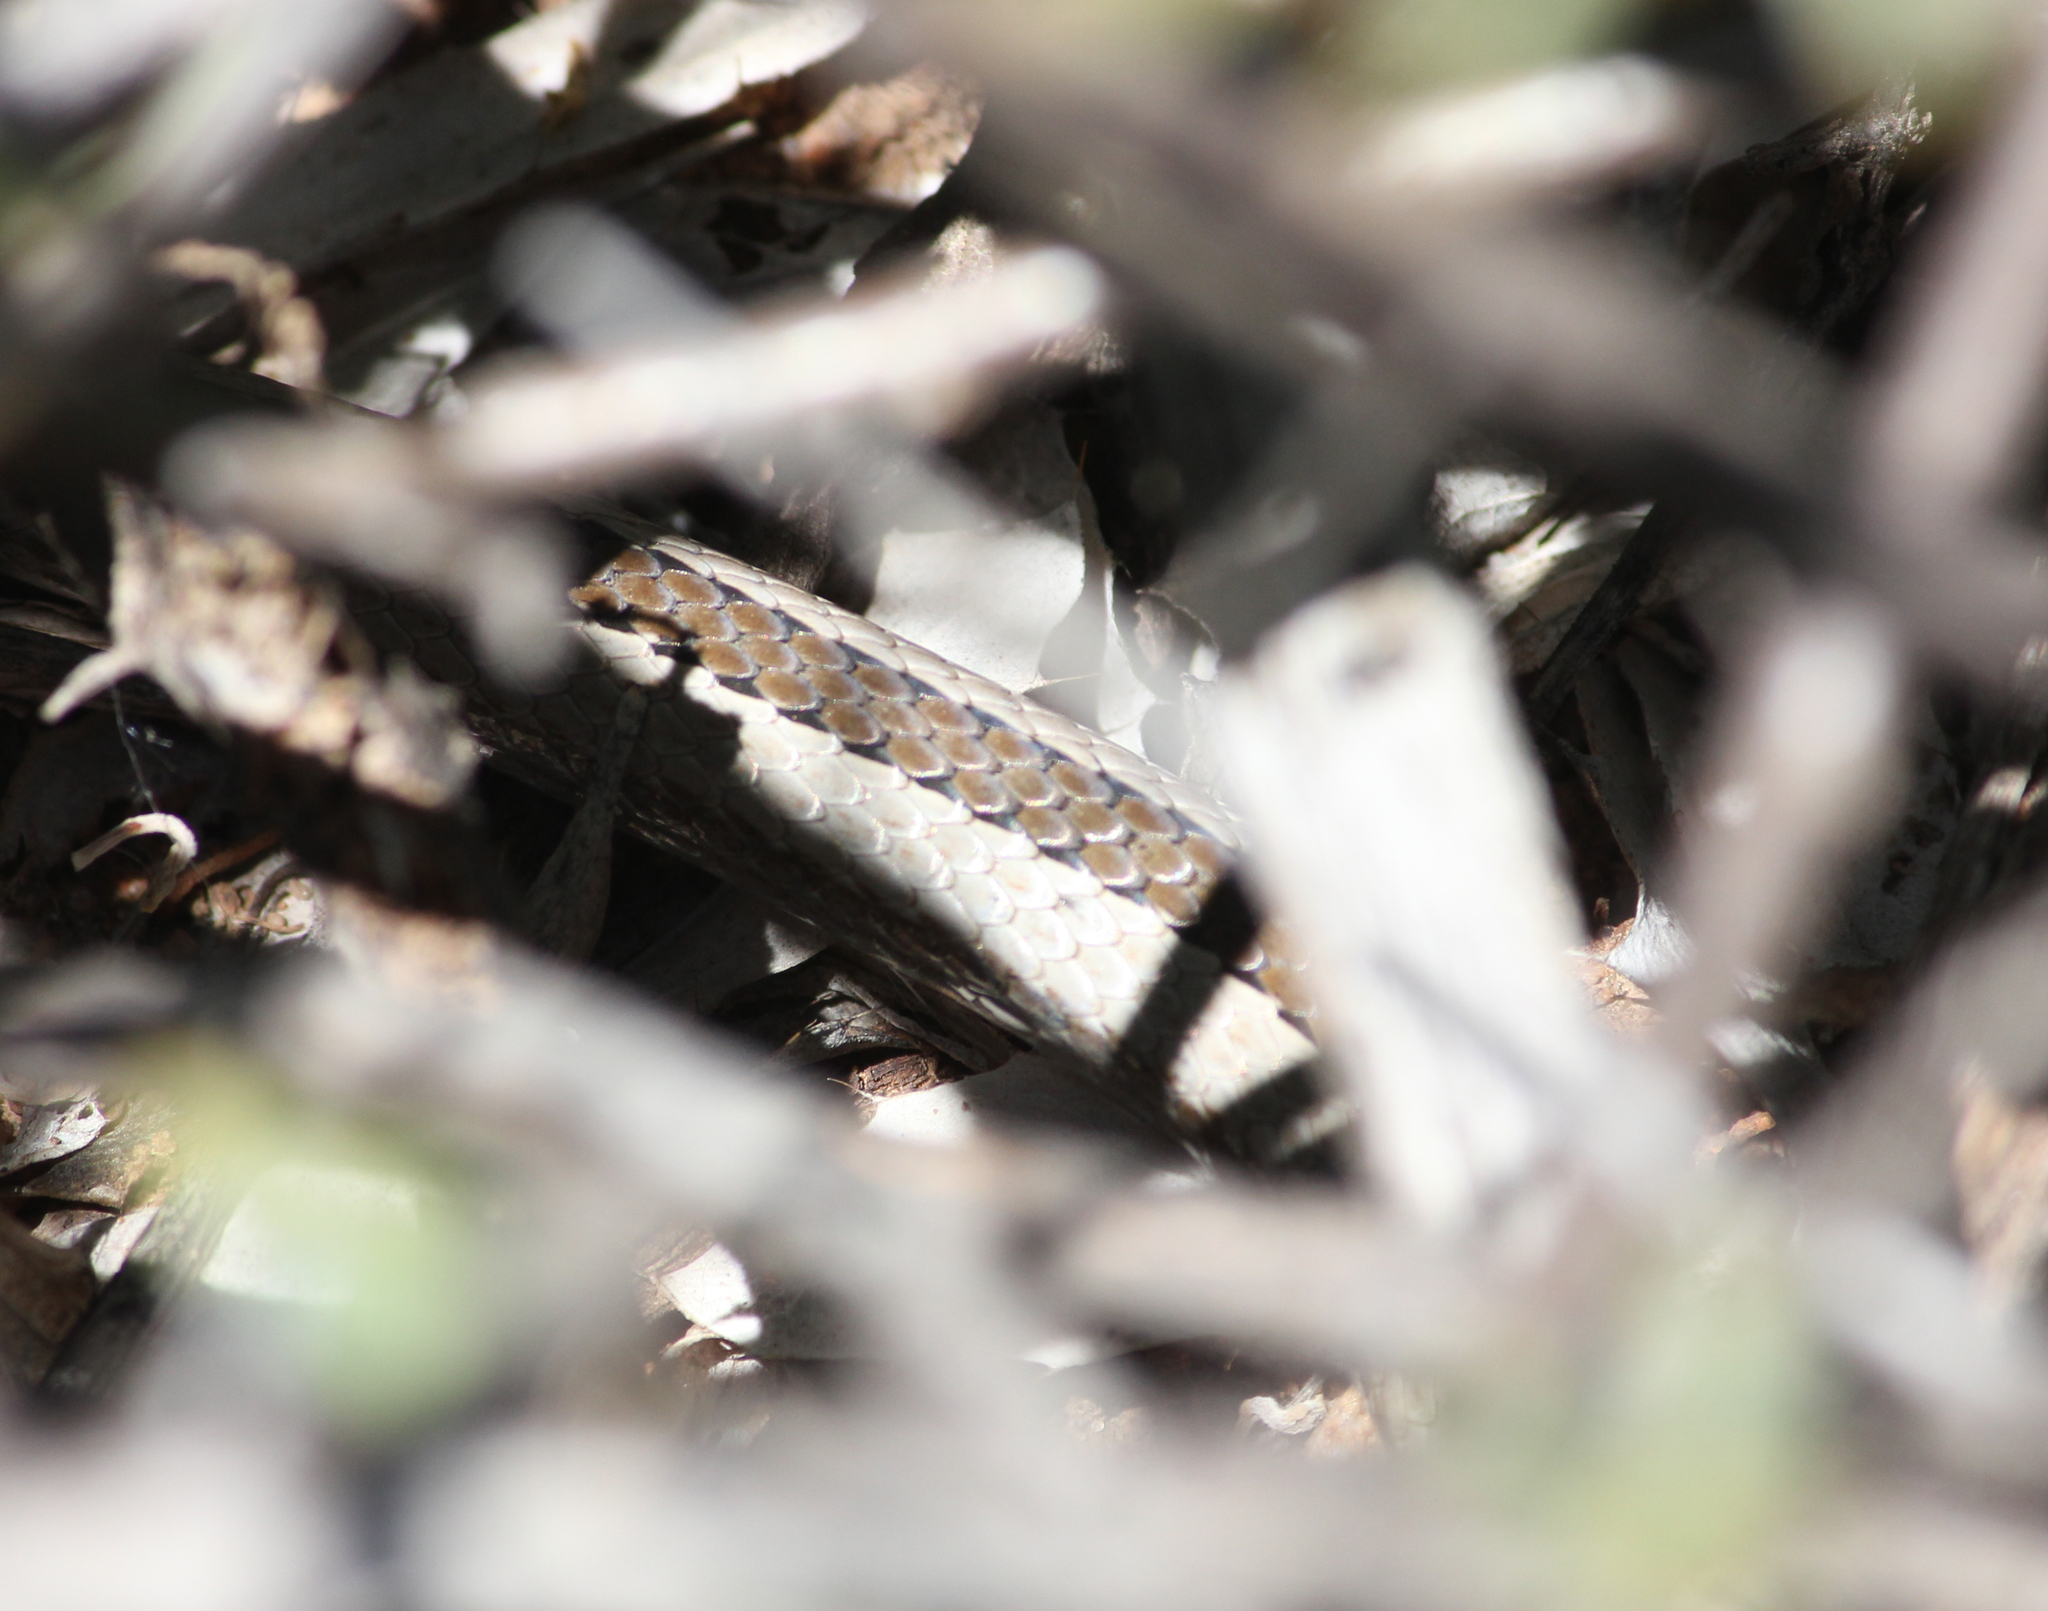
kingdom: Animalia
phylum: Chordata
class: Squamata
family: Psammophiidae
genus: Psammophis
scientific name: Psammophis crucifer
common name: Cross-marked grass snake
